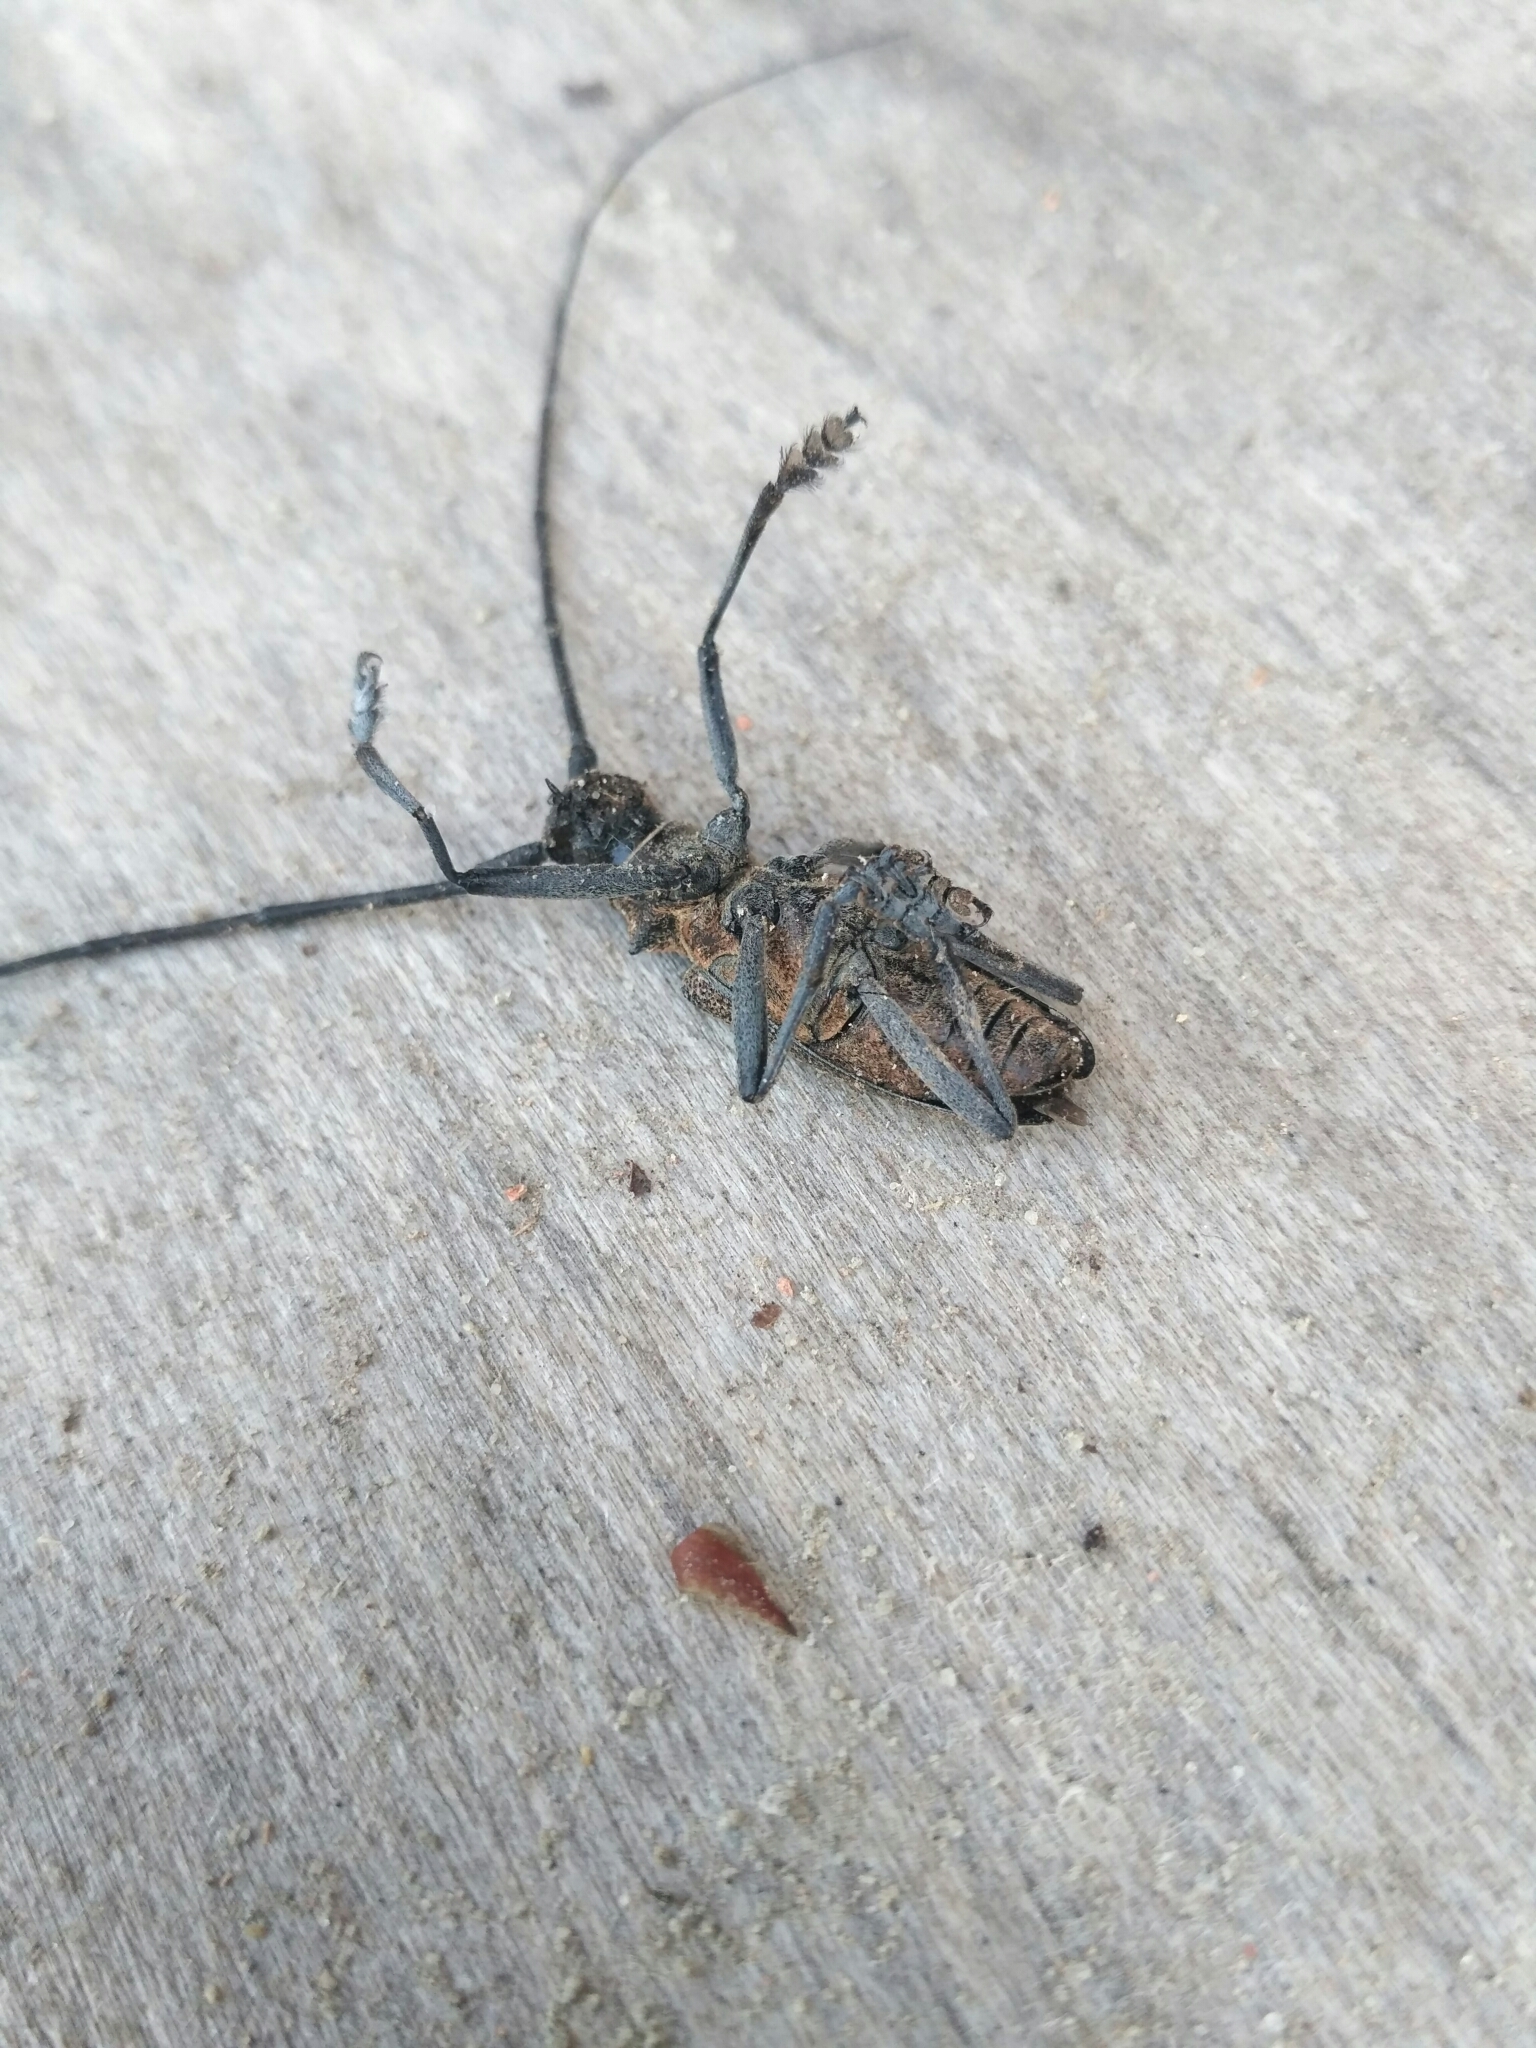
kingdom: Animalia
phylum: Arthropoda
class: Insecta
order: Coleoptera
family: Cerambycidae
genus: Monochamus
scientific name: Monochamus galloprovincialis
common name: Pine sawyer
